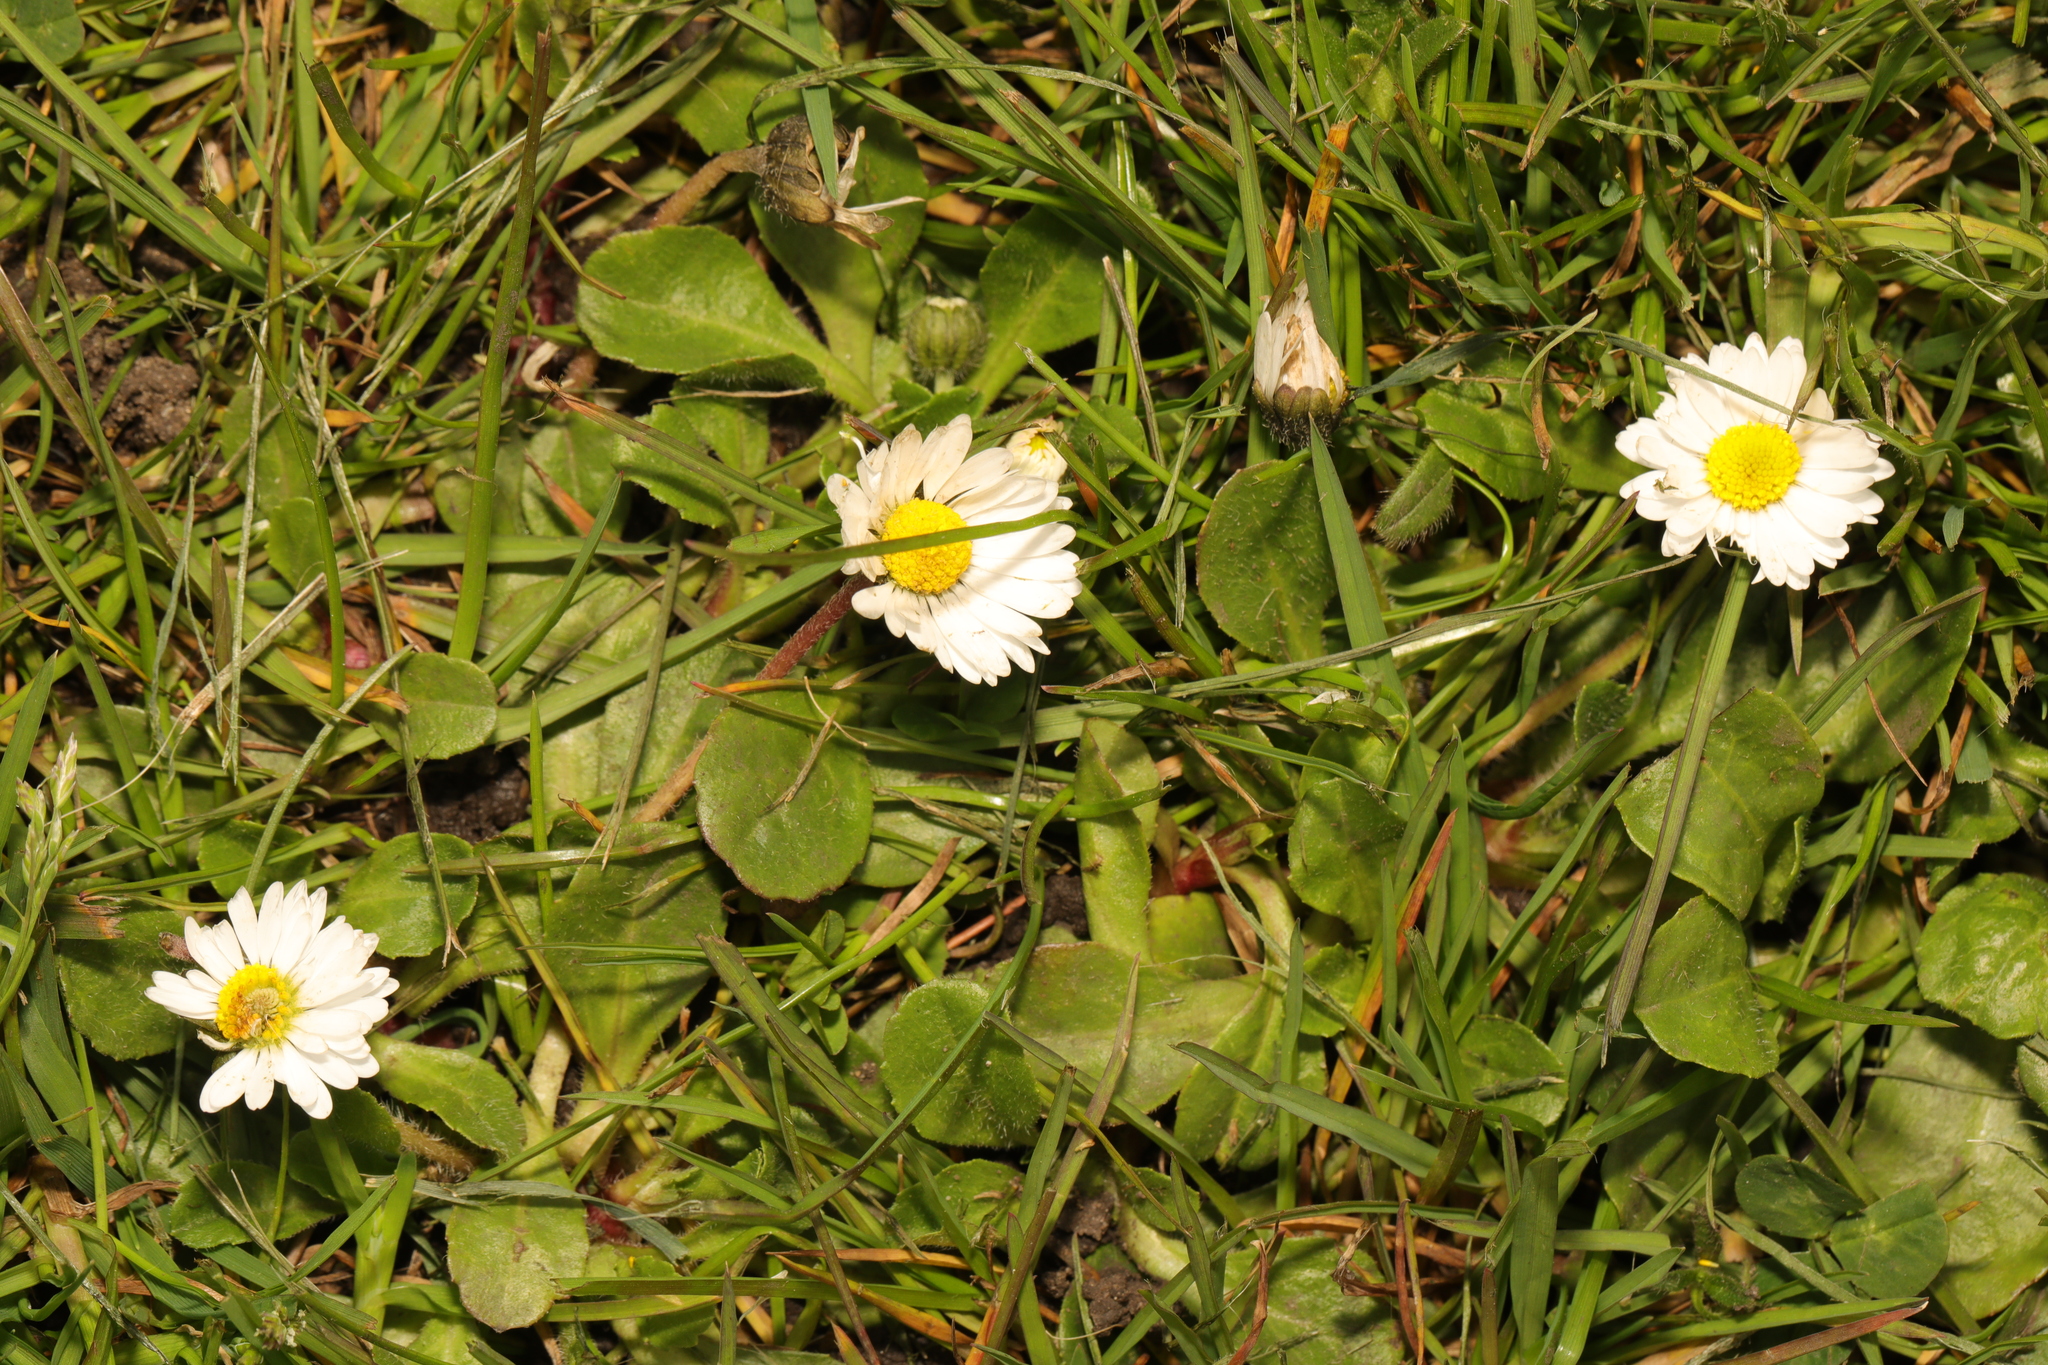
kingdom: Plantae
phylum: Tracheophyta
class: Magnoliopsida
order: Asterales
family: Asteraceae
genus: Bellis
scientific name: Bellis perennis
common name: Lawndaisy
